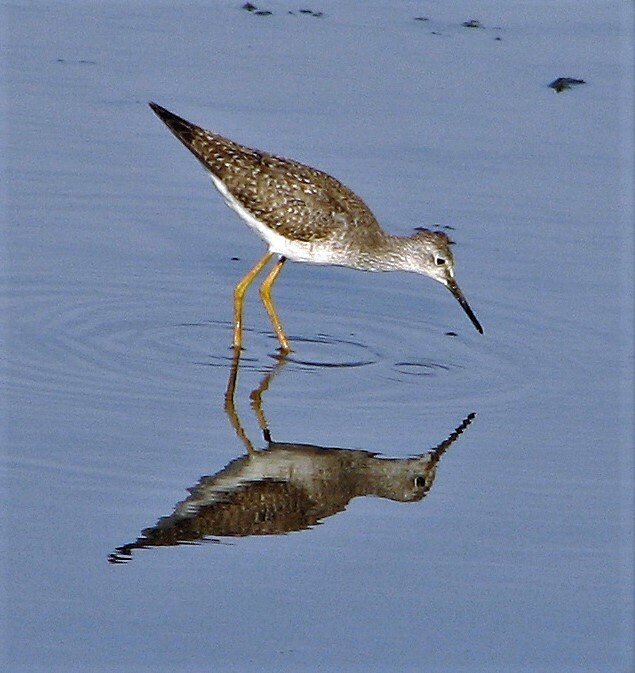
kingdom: Animalia
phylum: Chordata
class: Aves
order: Charadriiformes
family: Scolopacidae
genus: Tringa
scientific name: Tringa flavipes
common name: Lesser yellowlegs
